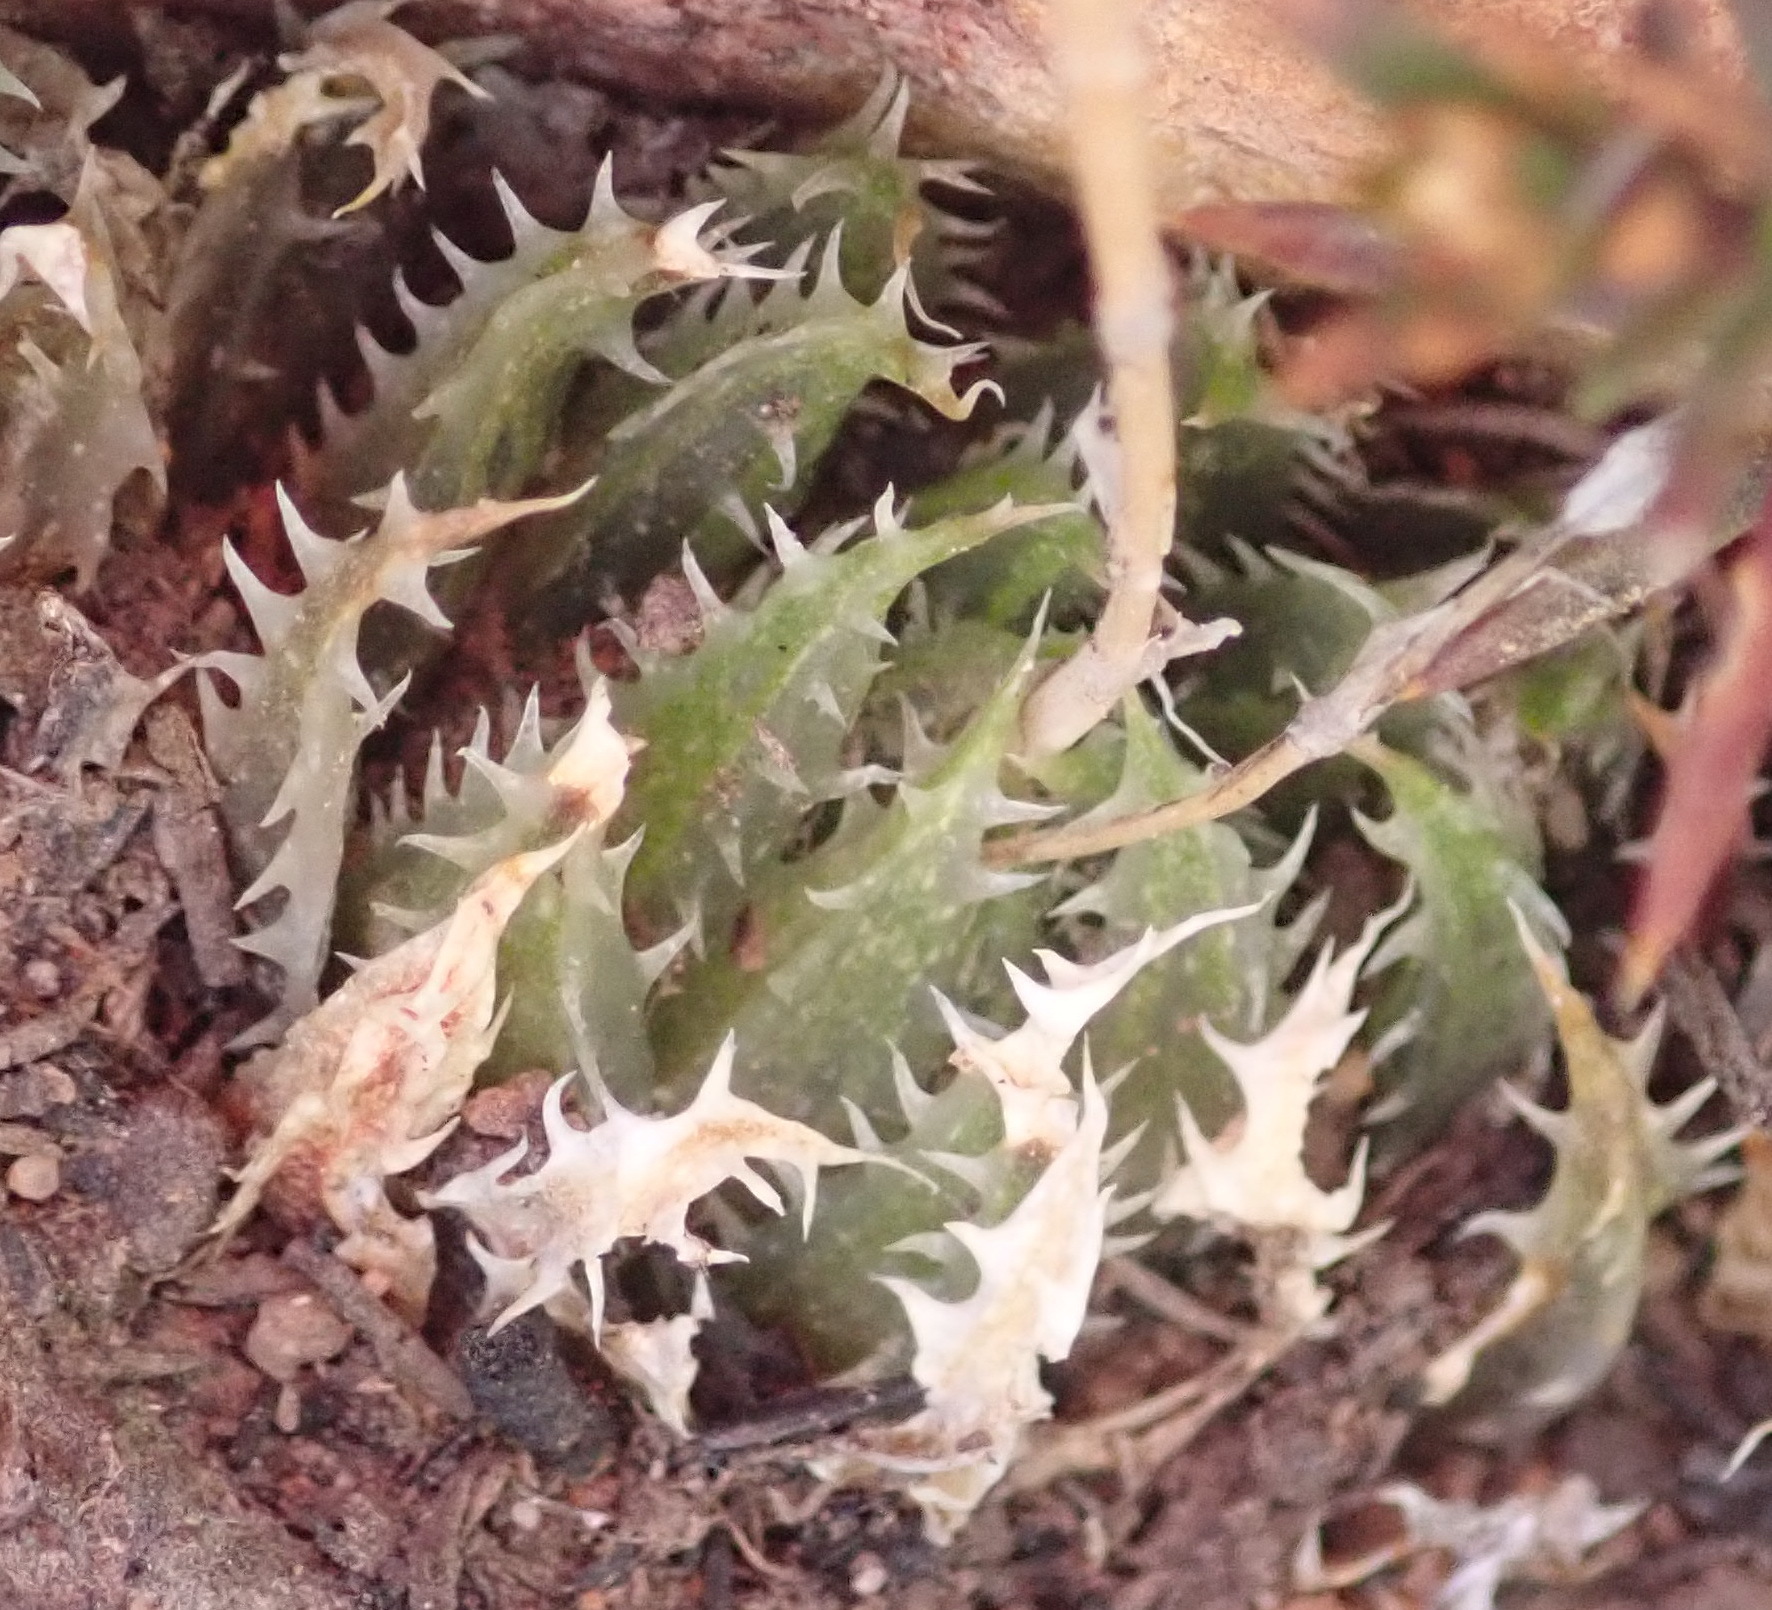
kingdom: Plantae
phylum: Tracheophyta
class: Liliopsida
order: Asparagales
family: Asphodelaceae
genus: Haworthia
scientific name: Haworthia outeniquensis
